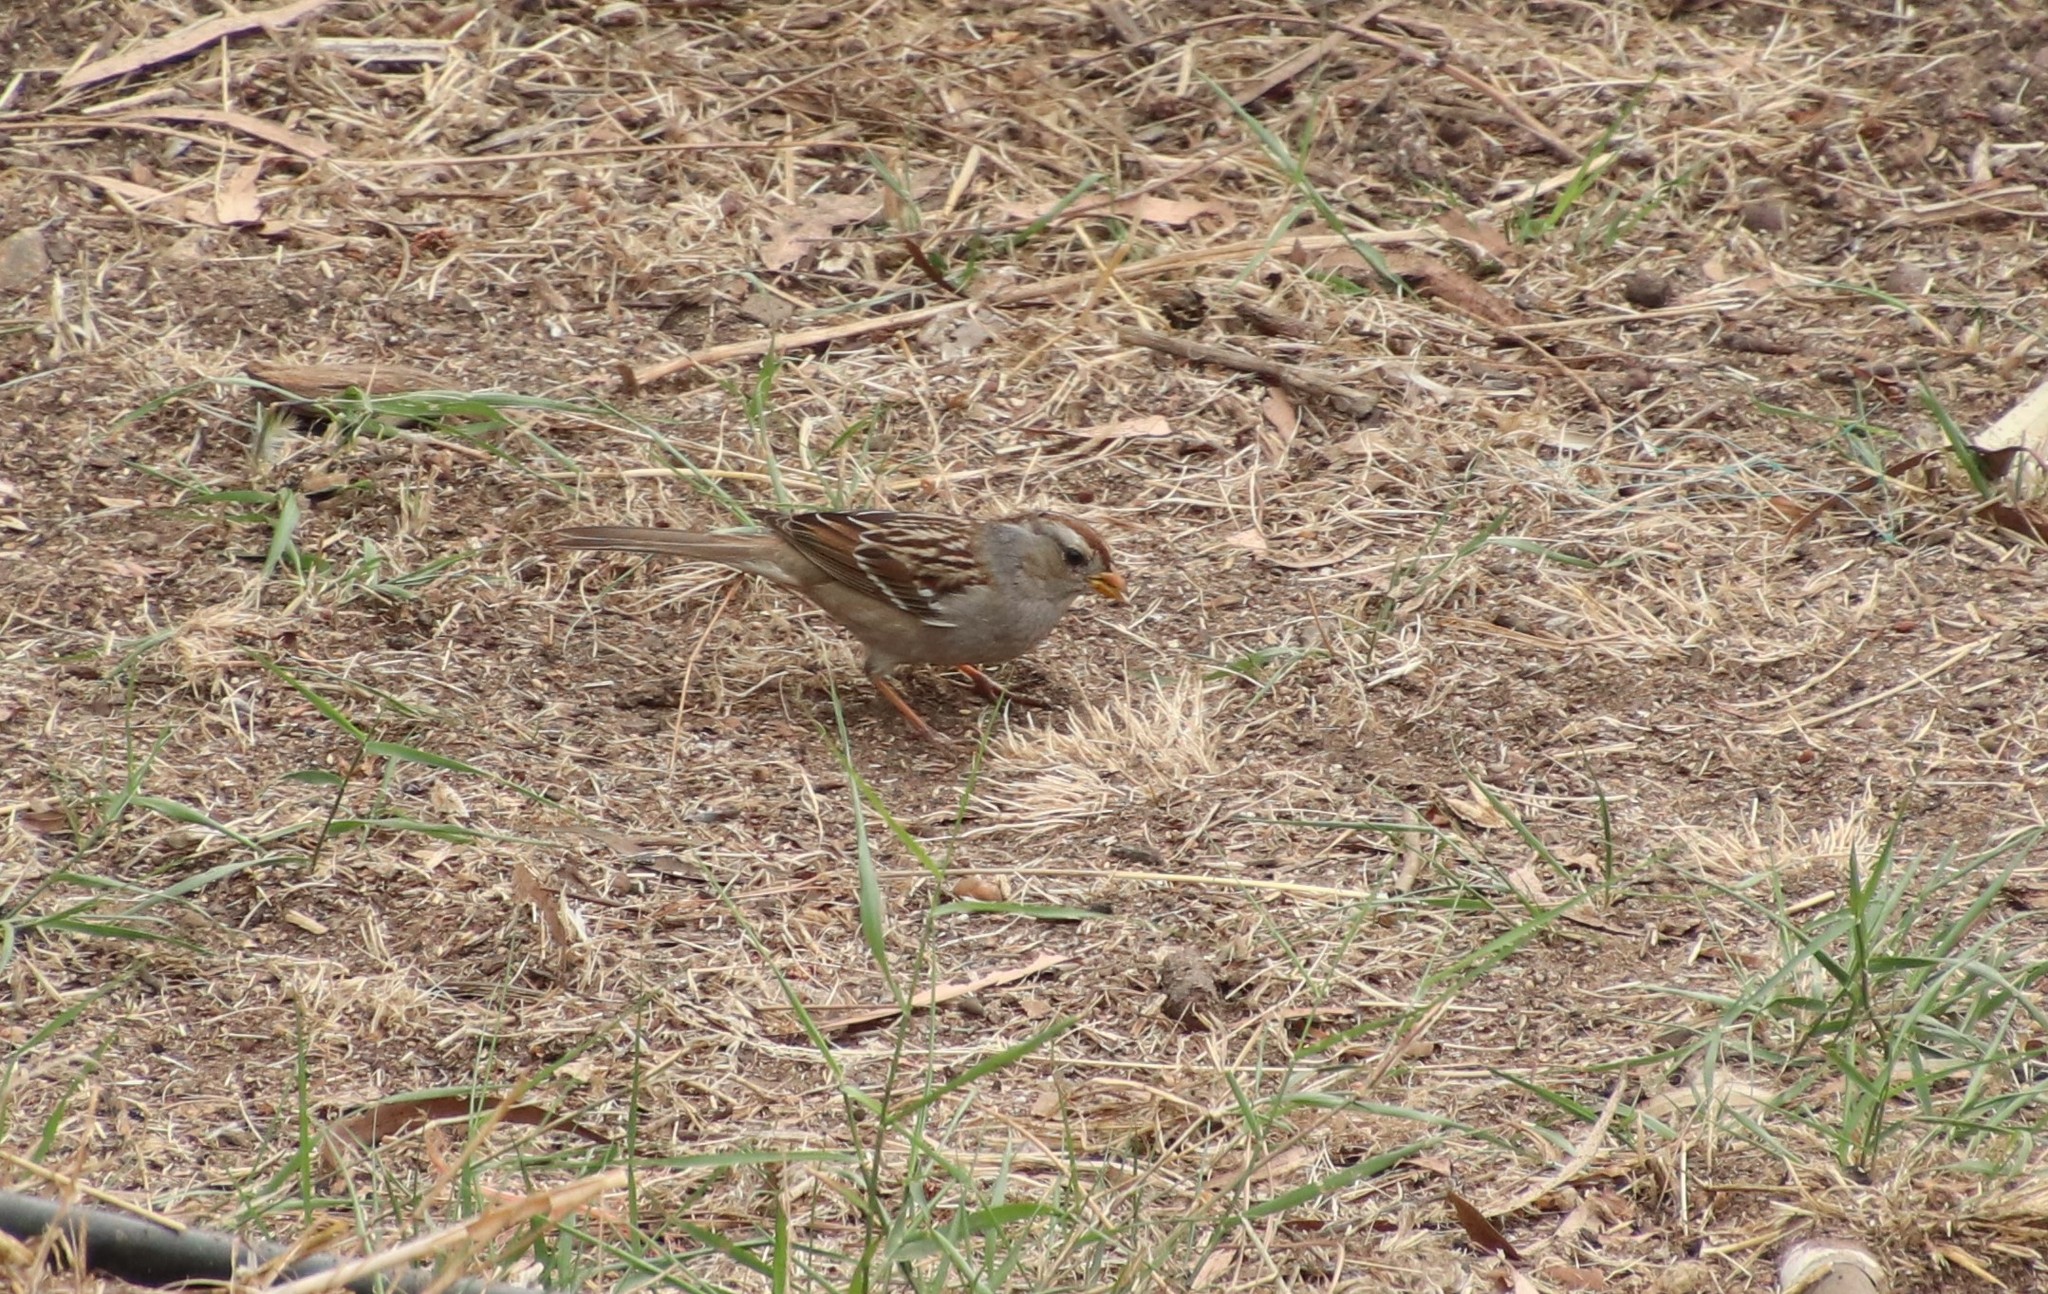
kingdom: Animalia
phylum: Chordata
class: Aves
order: Passeriformes
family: Passerellidae
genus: Zonotrichia
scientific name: Zonotrichia leucophrys
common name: White-crowned sparrow
